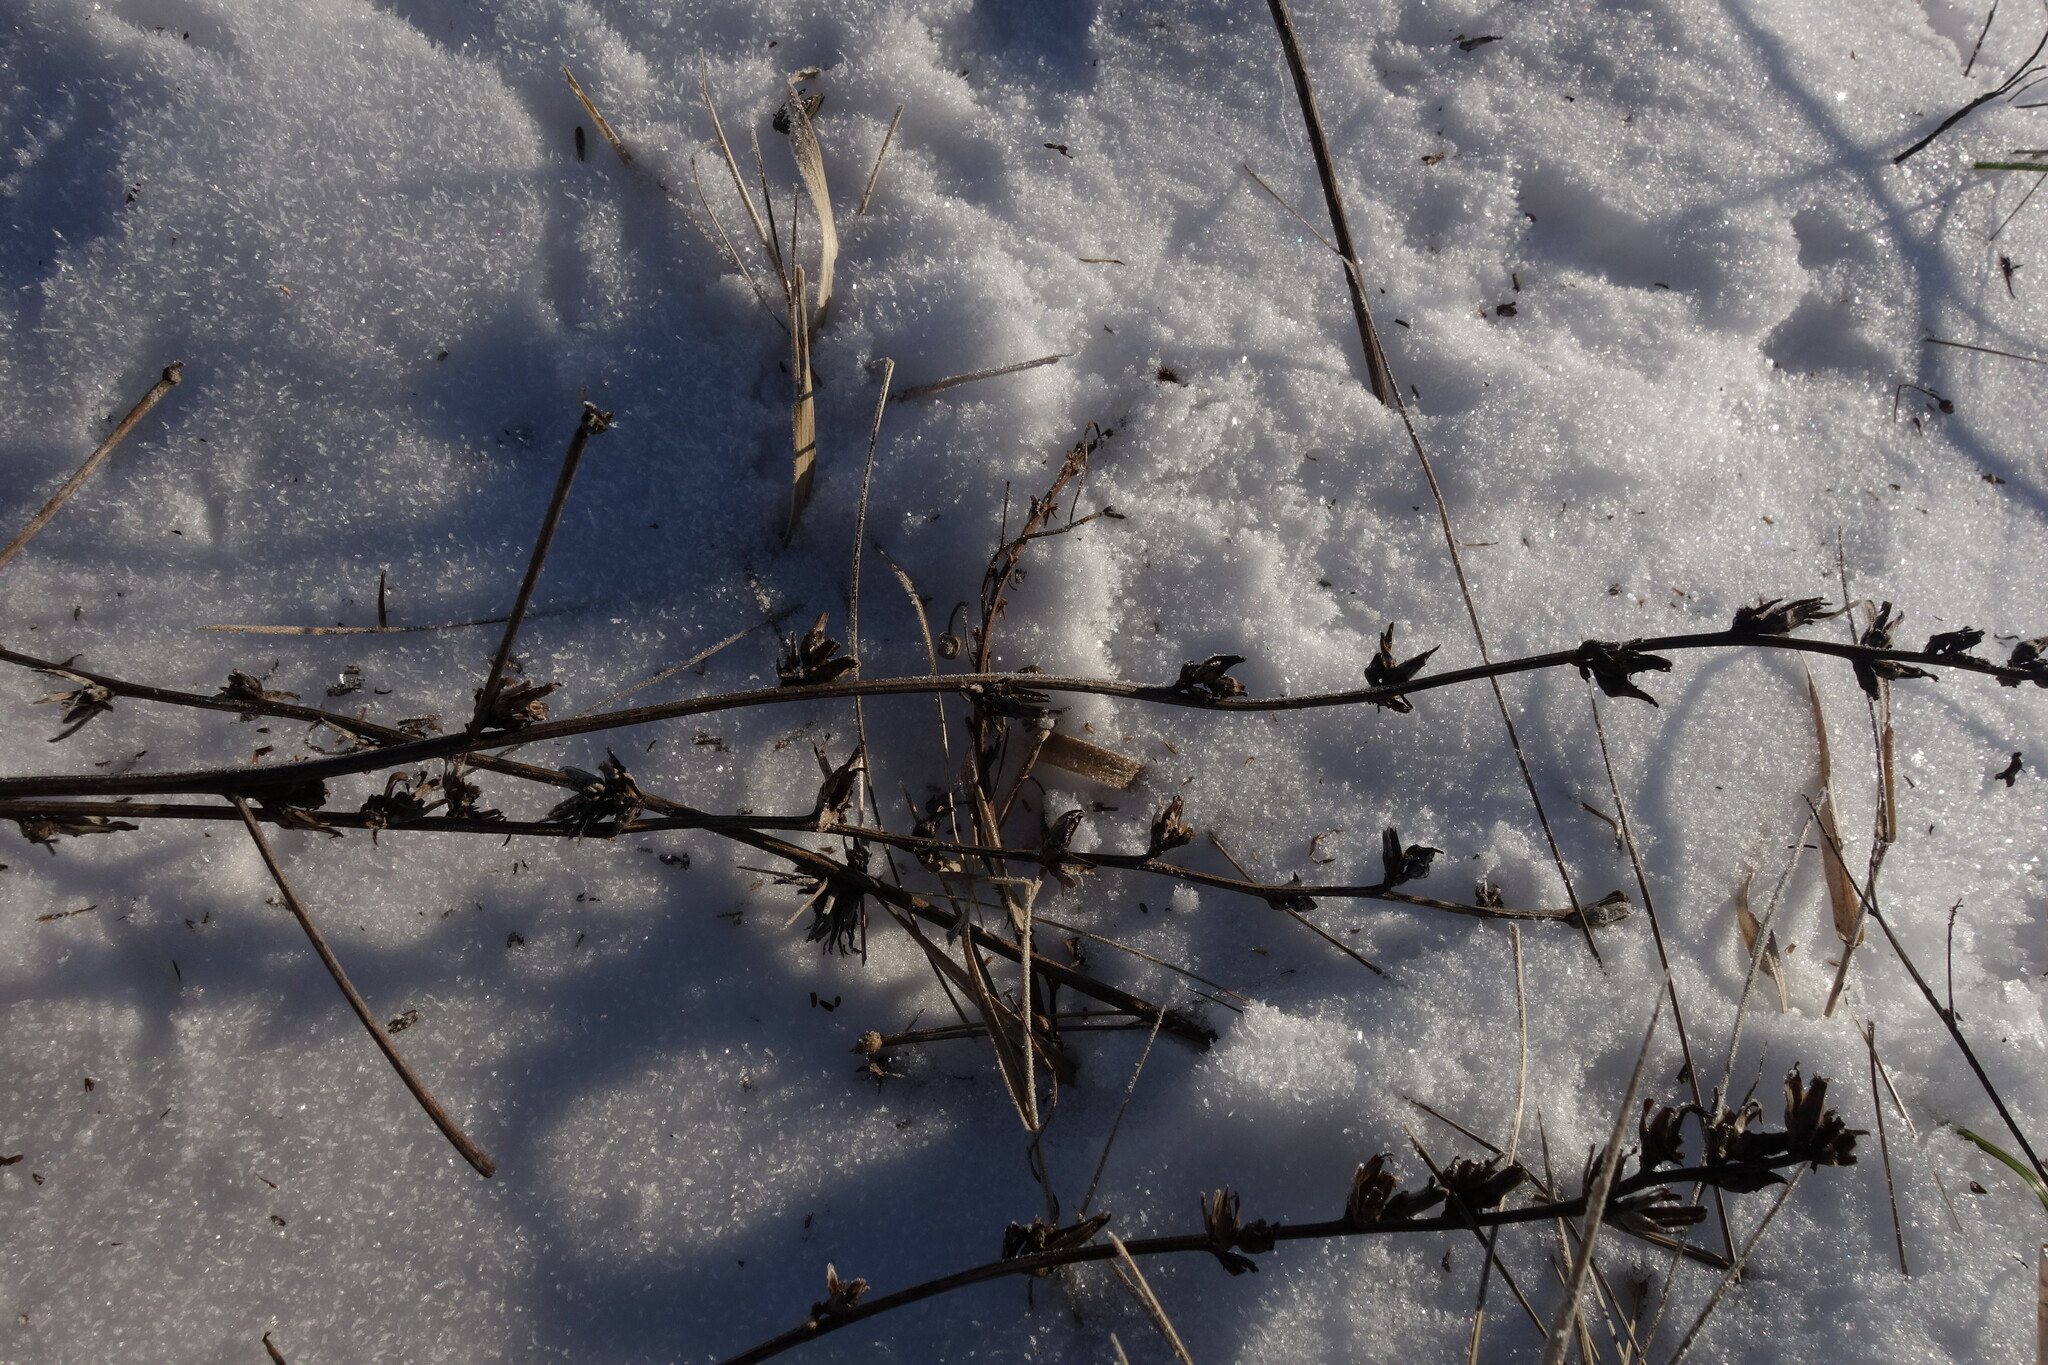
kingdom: Plantae
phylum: Tracheophyta
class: Magnoliopsida
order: Asterales
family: Asteraceae
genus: Cichorium
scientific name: Cichorium intybus
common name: Chicory
